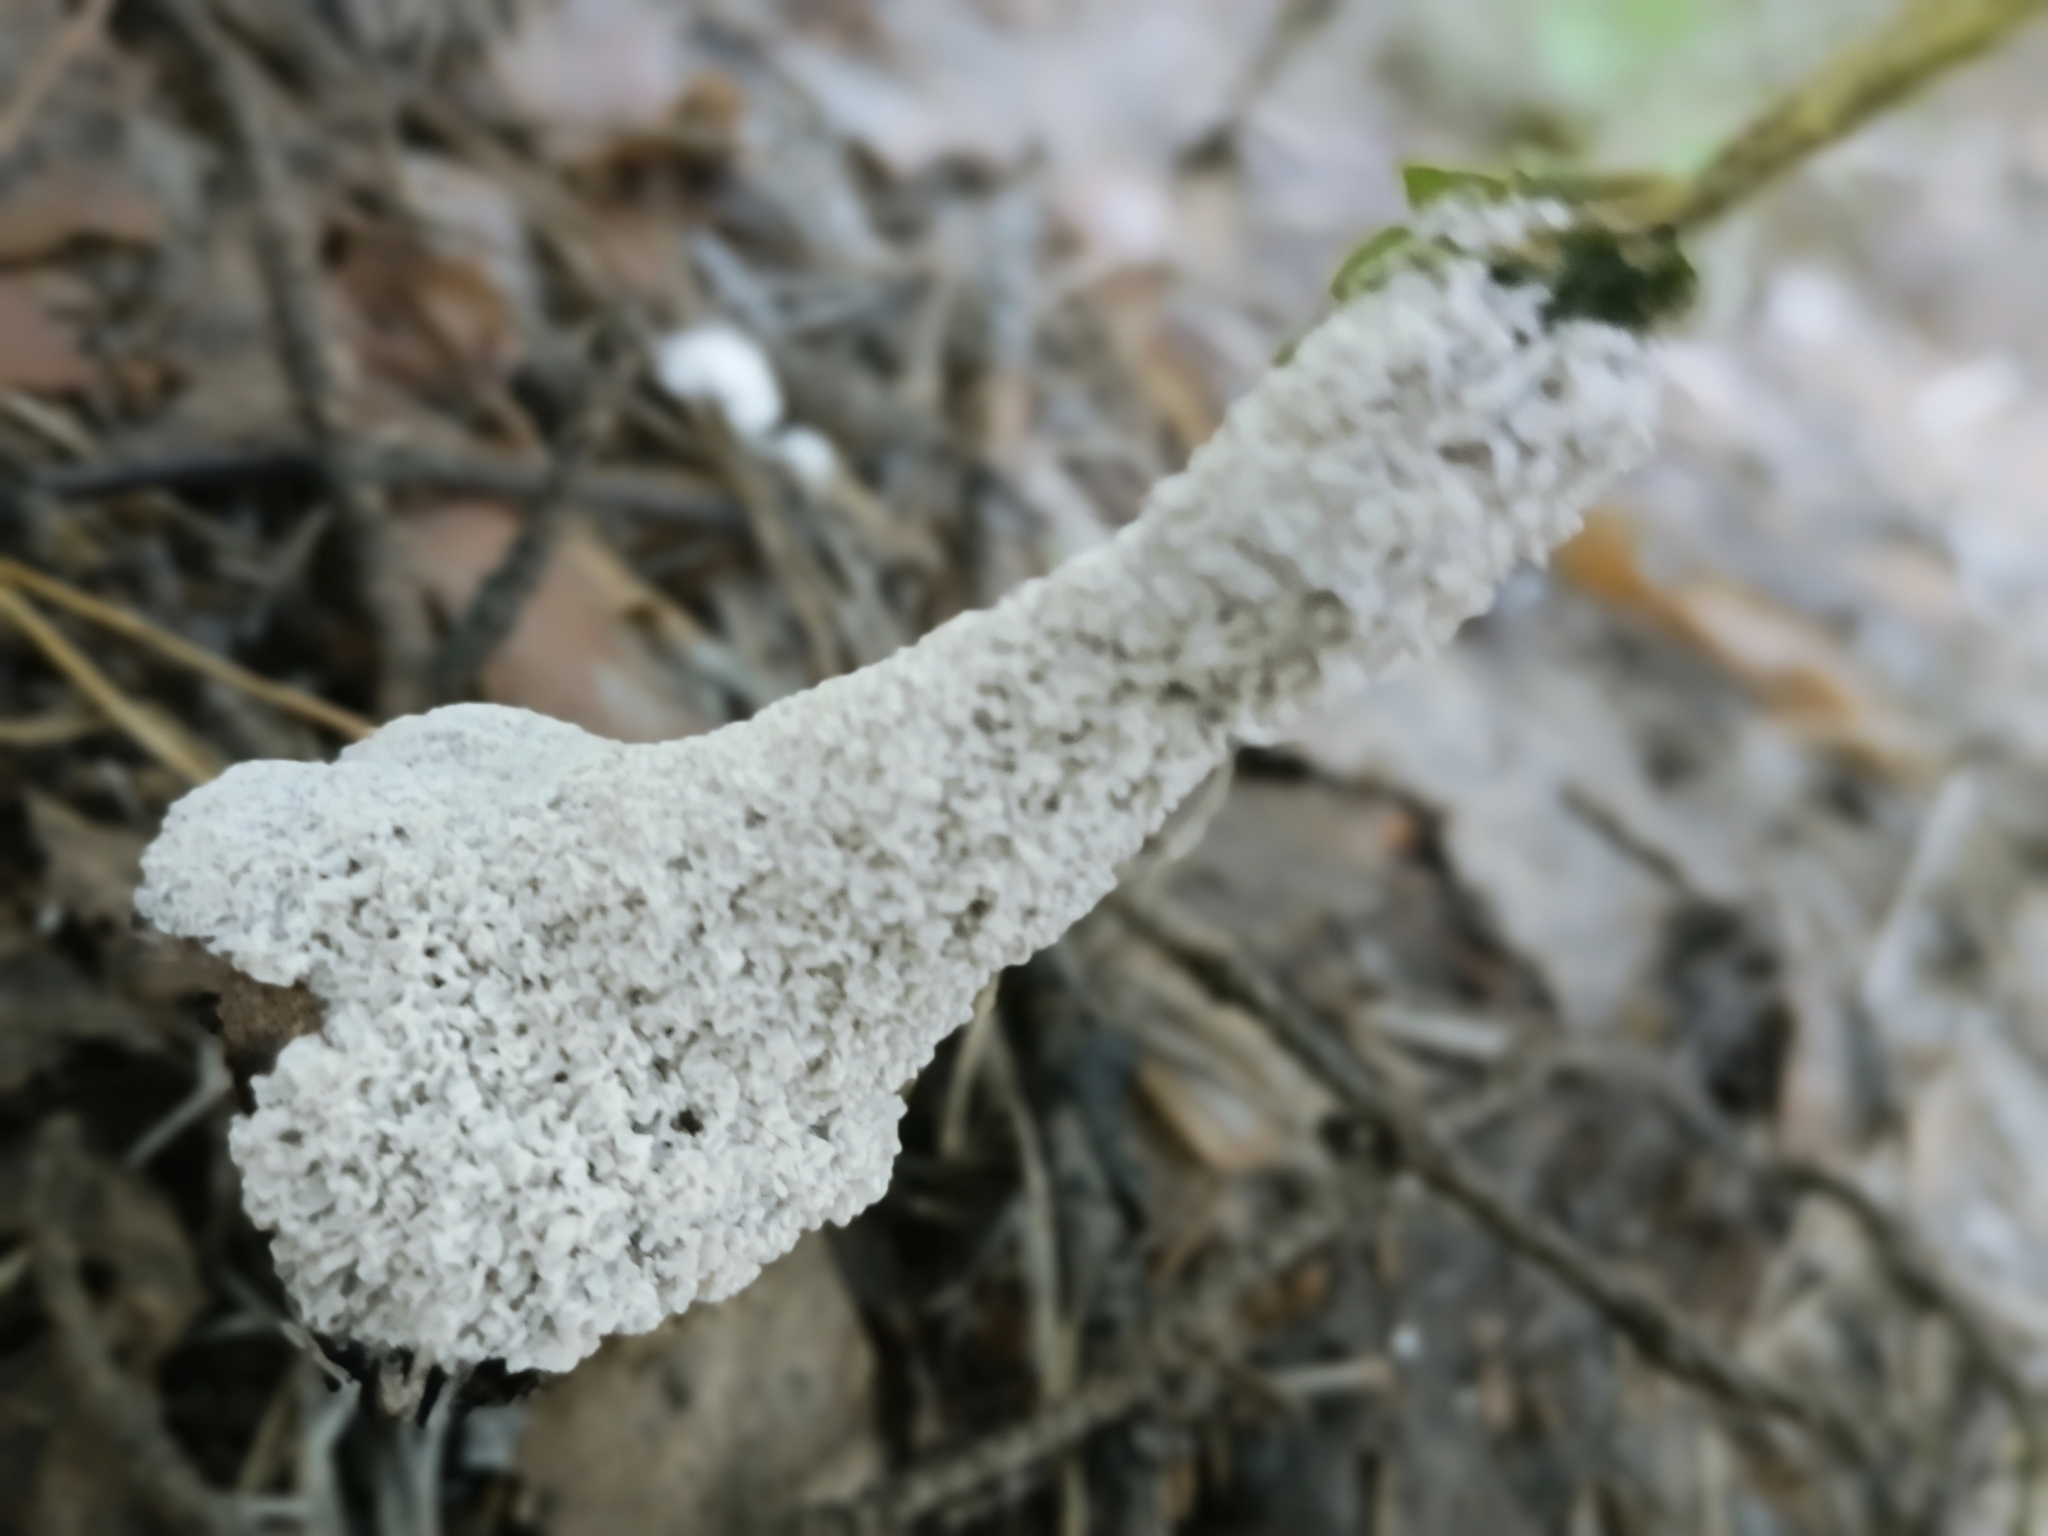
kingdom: Protozoa
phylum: Mycetozoa
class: Myxomycetes
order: Physarales
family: Physaraceae
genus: Didymium
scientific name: Didymium
